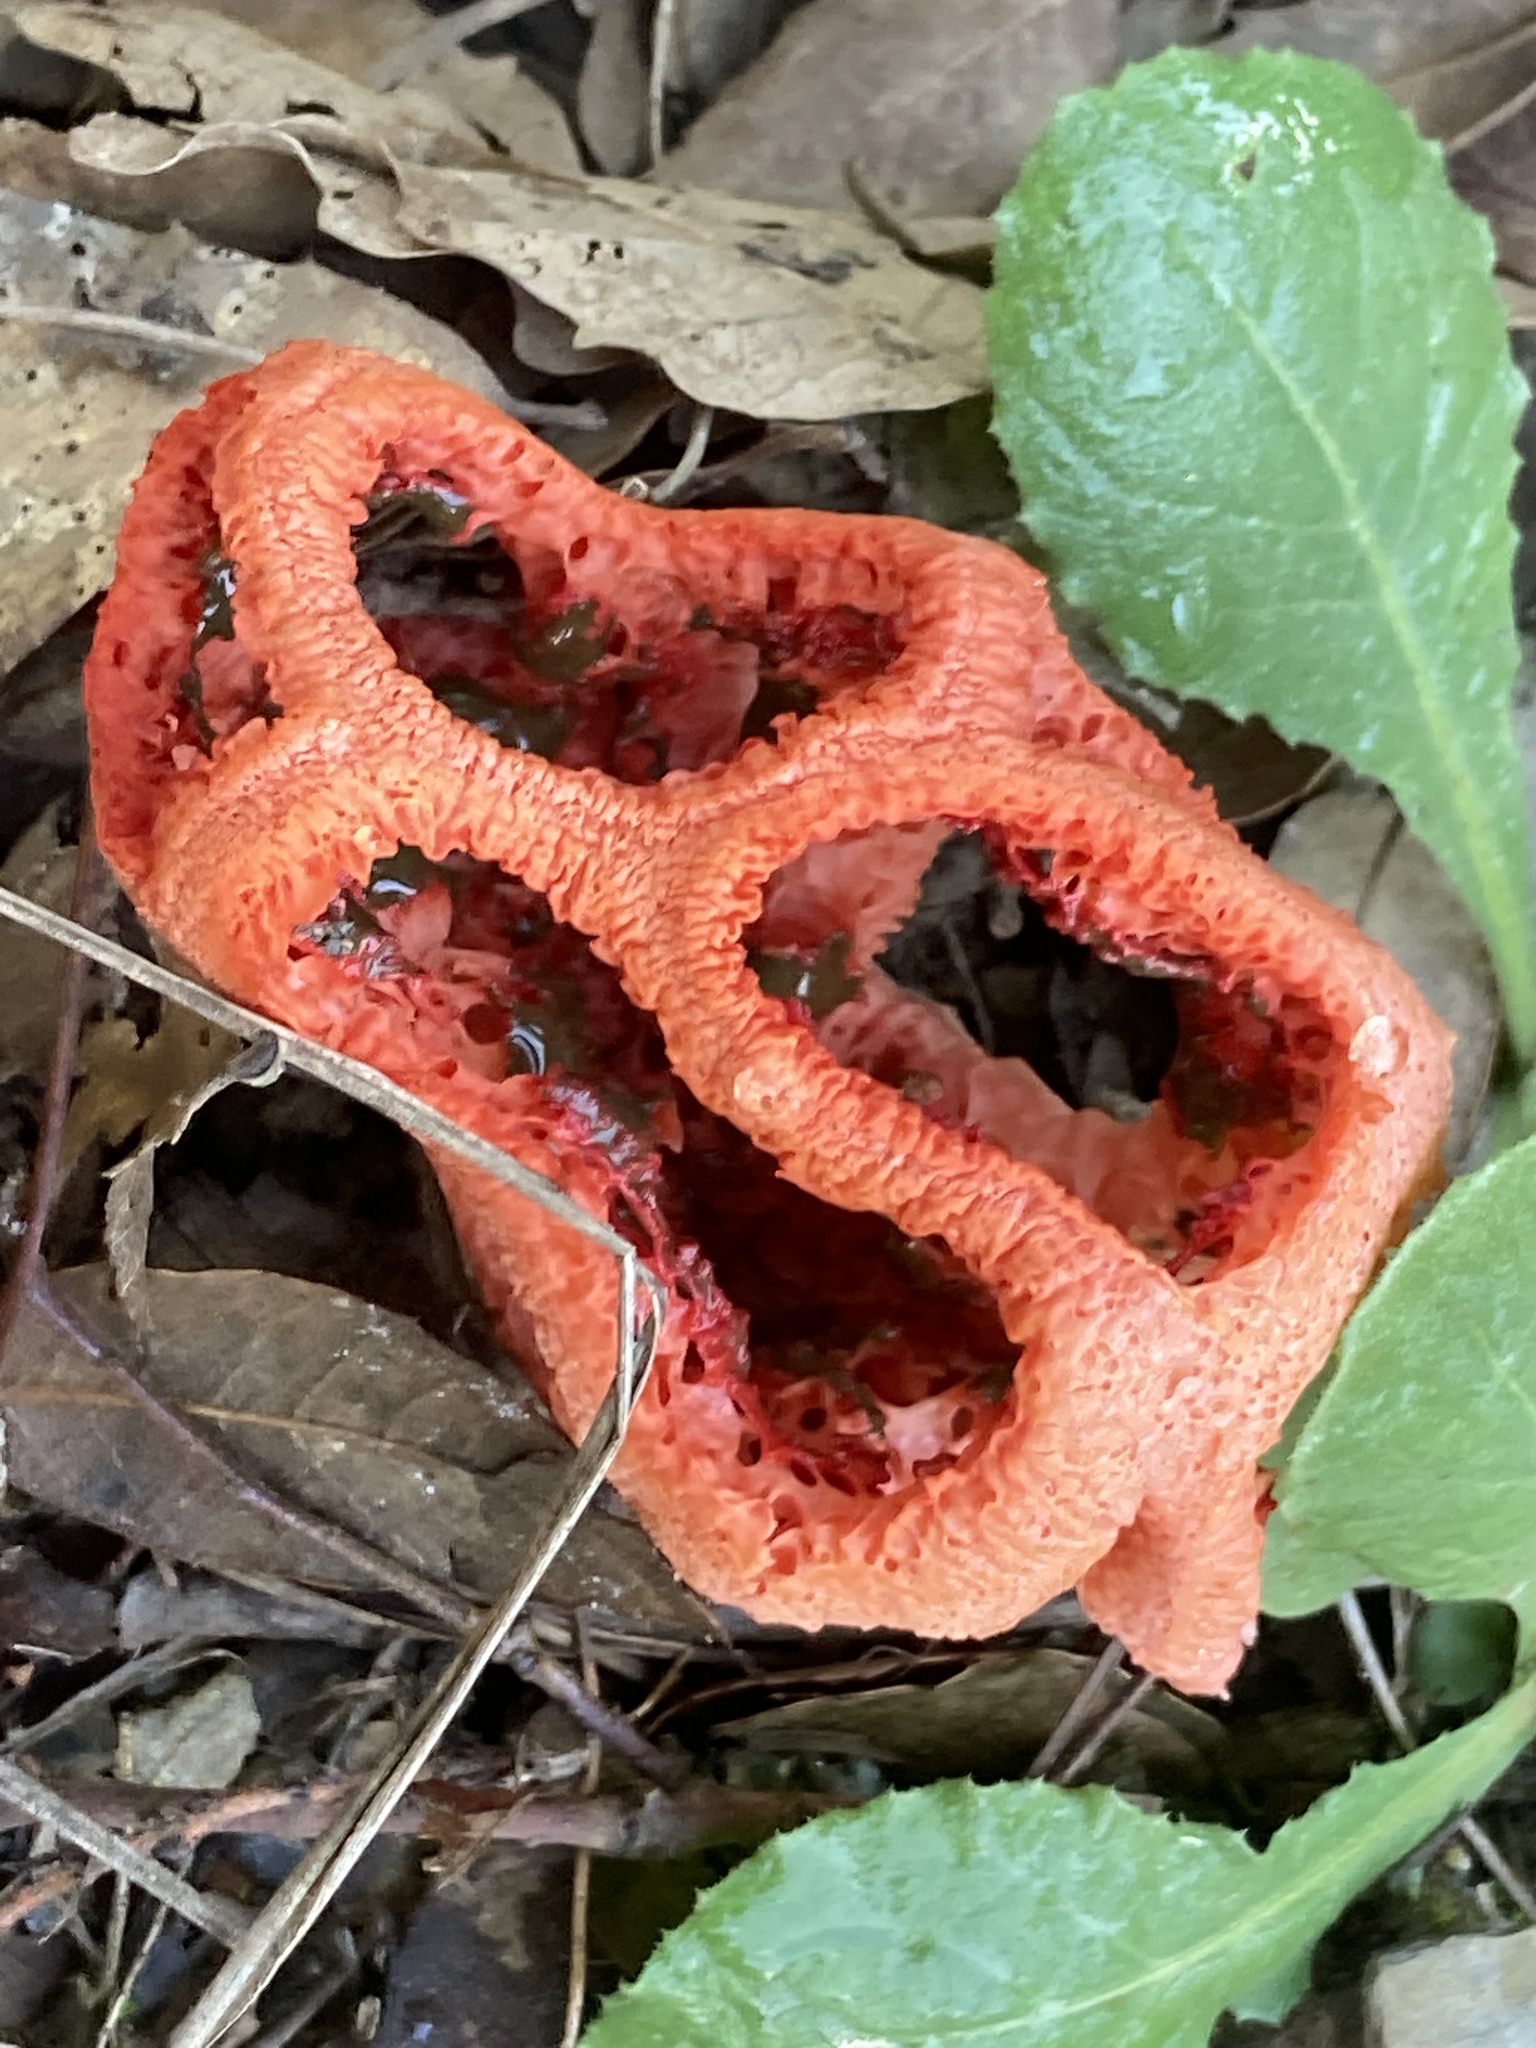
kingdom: Fungi
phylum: Basidiomycota
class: Agaricomycetes
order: Phallales
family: Phallaceae
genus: Clathrus
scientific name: Clathrus ruber
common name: Red cage
